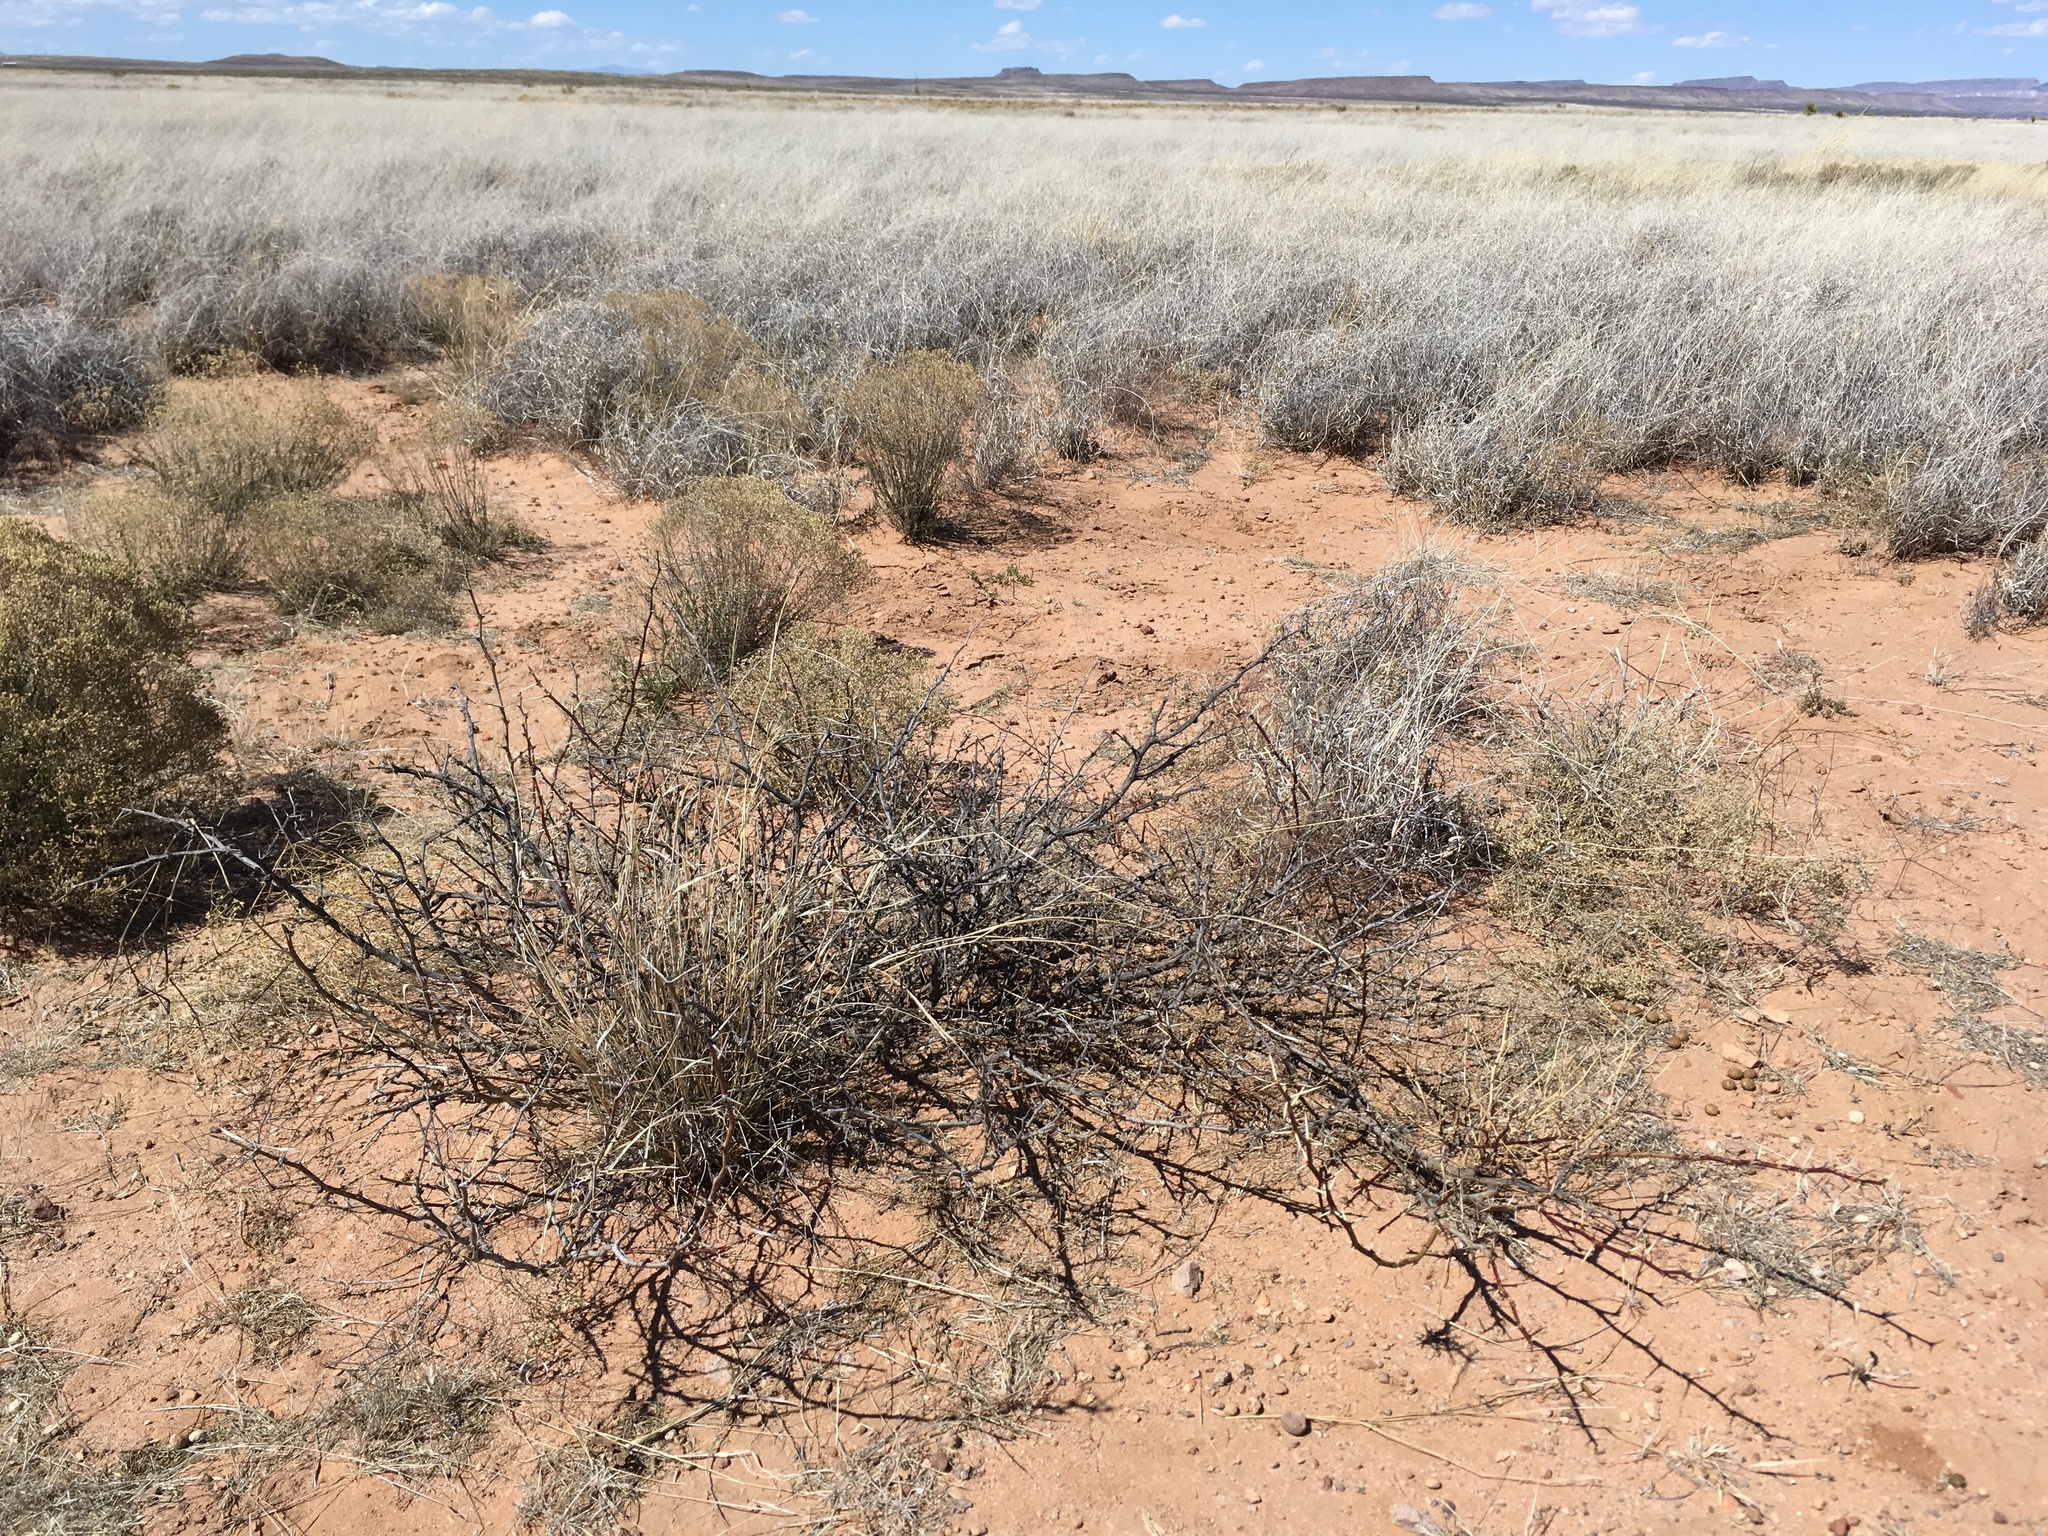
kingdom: Plantae
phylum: Tracheophyta
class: Magnoliopsida
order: Fabales
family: Fabaceae
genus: Prosopis
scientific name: Prosopis glandulosa
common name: Honey mesquite
